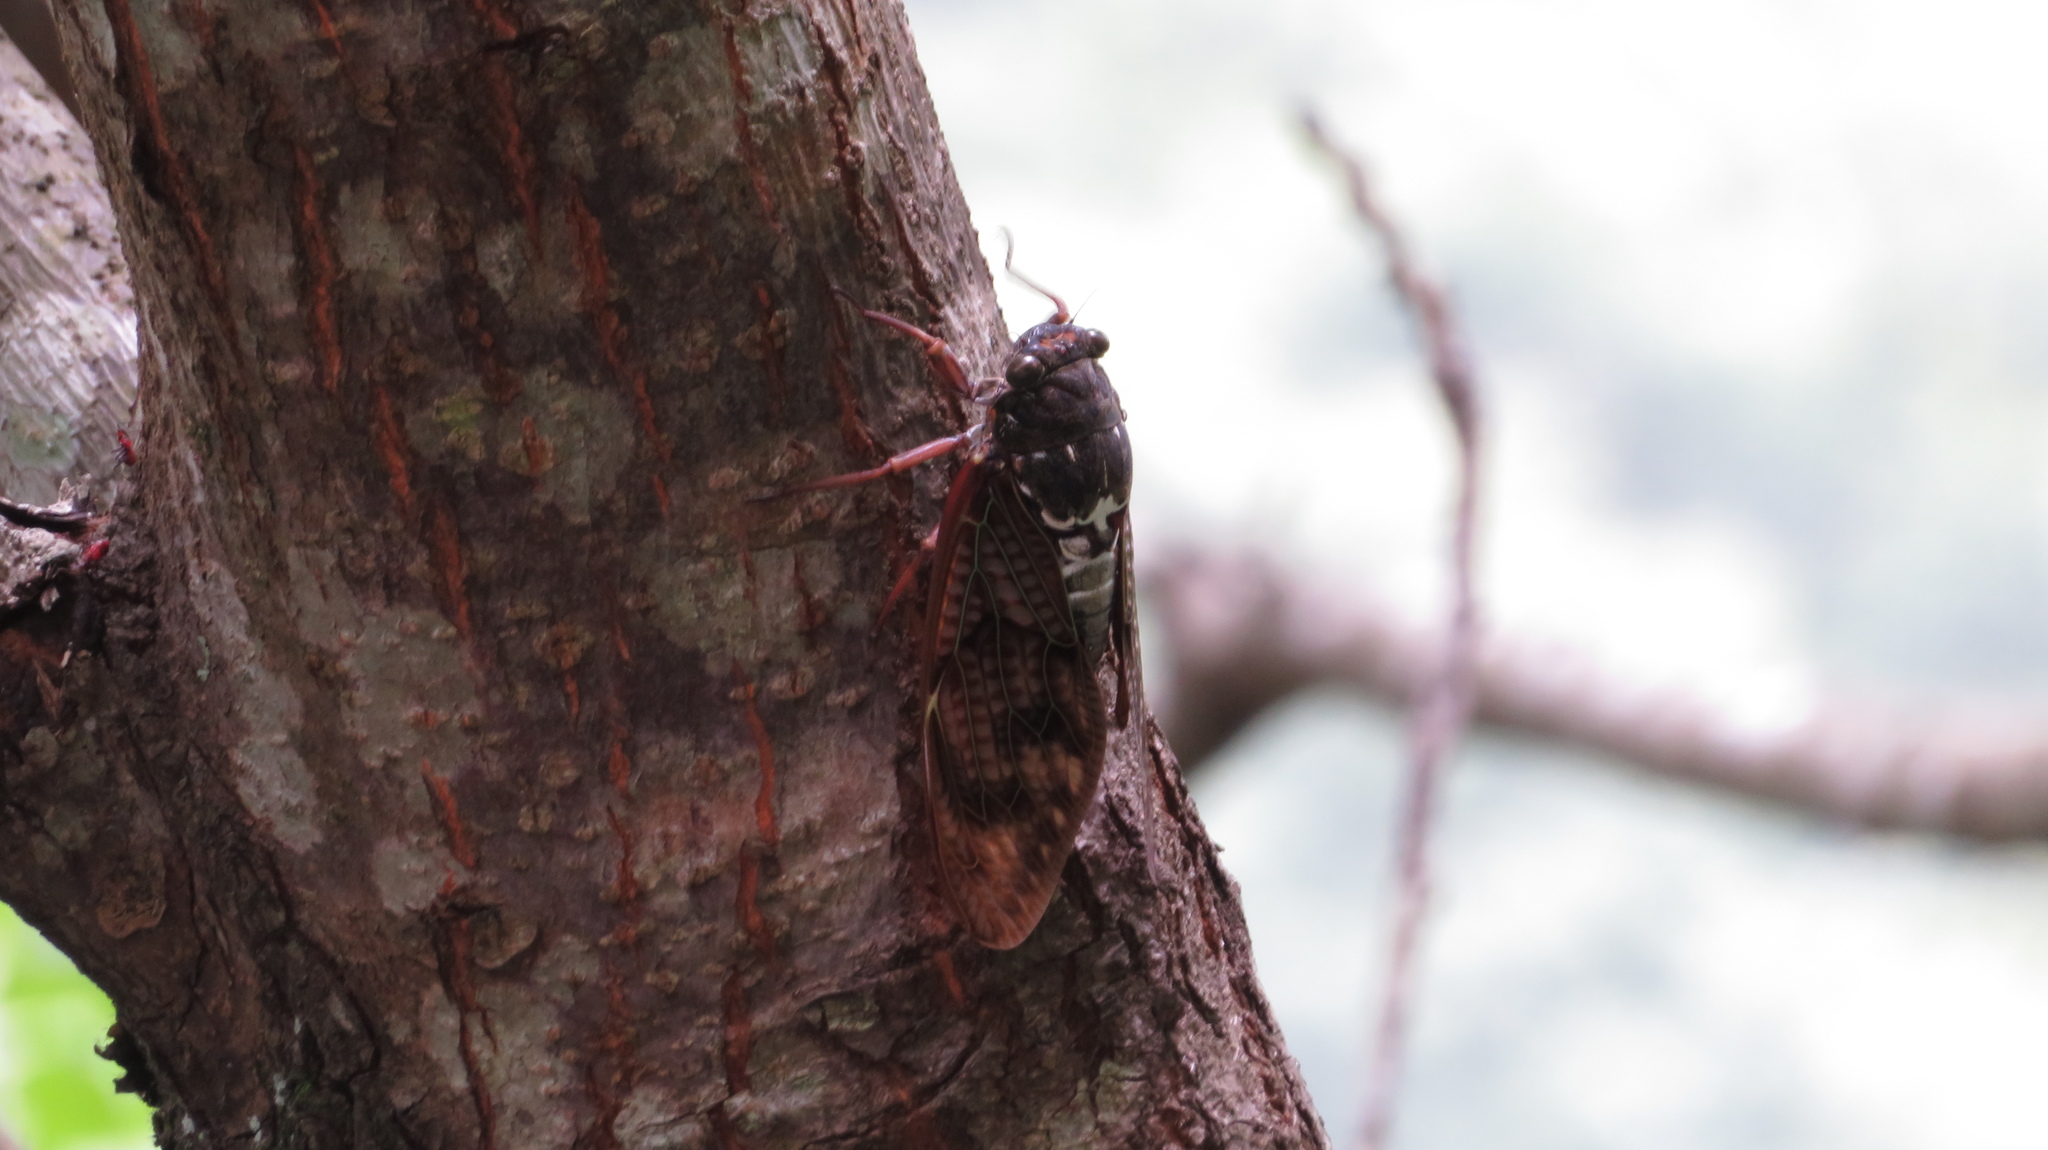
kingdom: Animalia
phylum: Arthropoda
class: Insecta
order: Hemiptera
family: Cicadidae
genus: Graptopsaltria
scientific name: Graptopsaltria nigrofuscata
